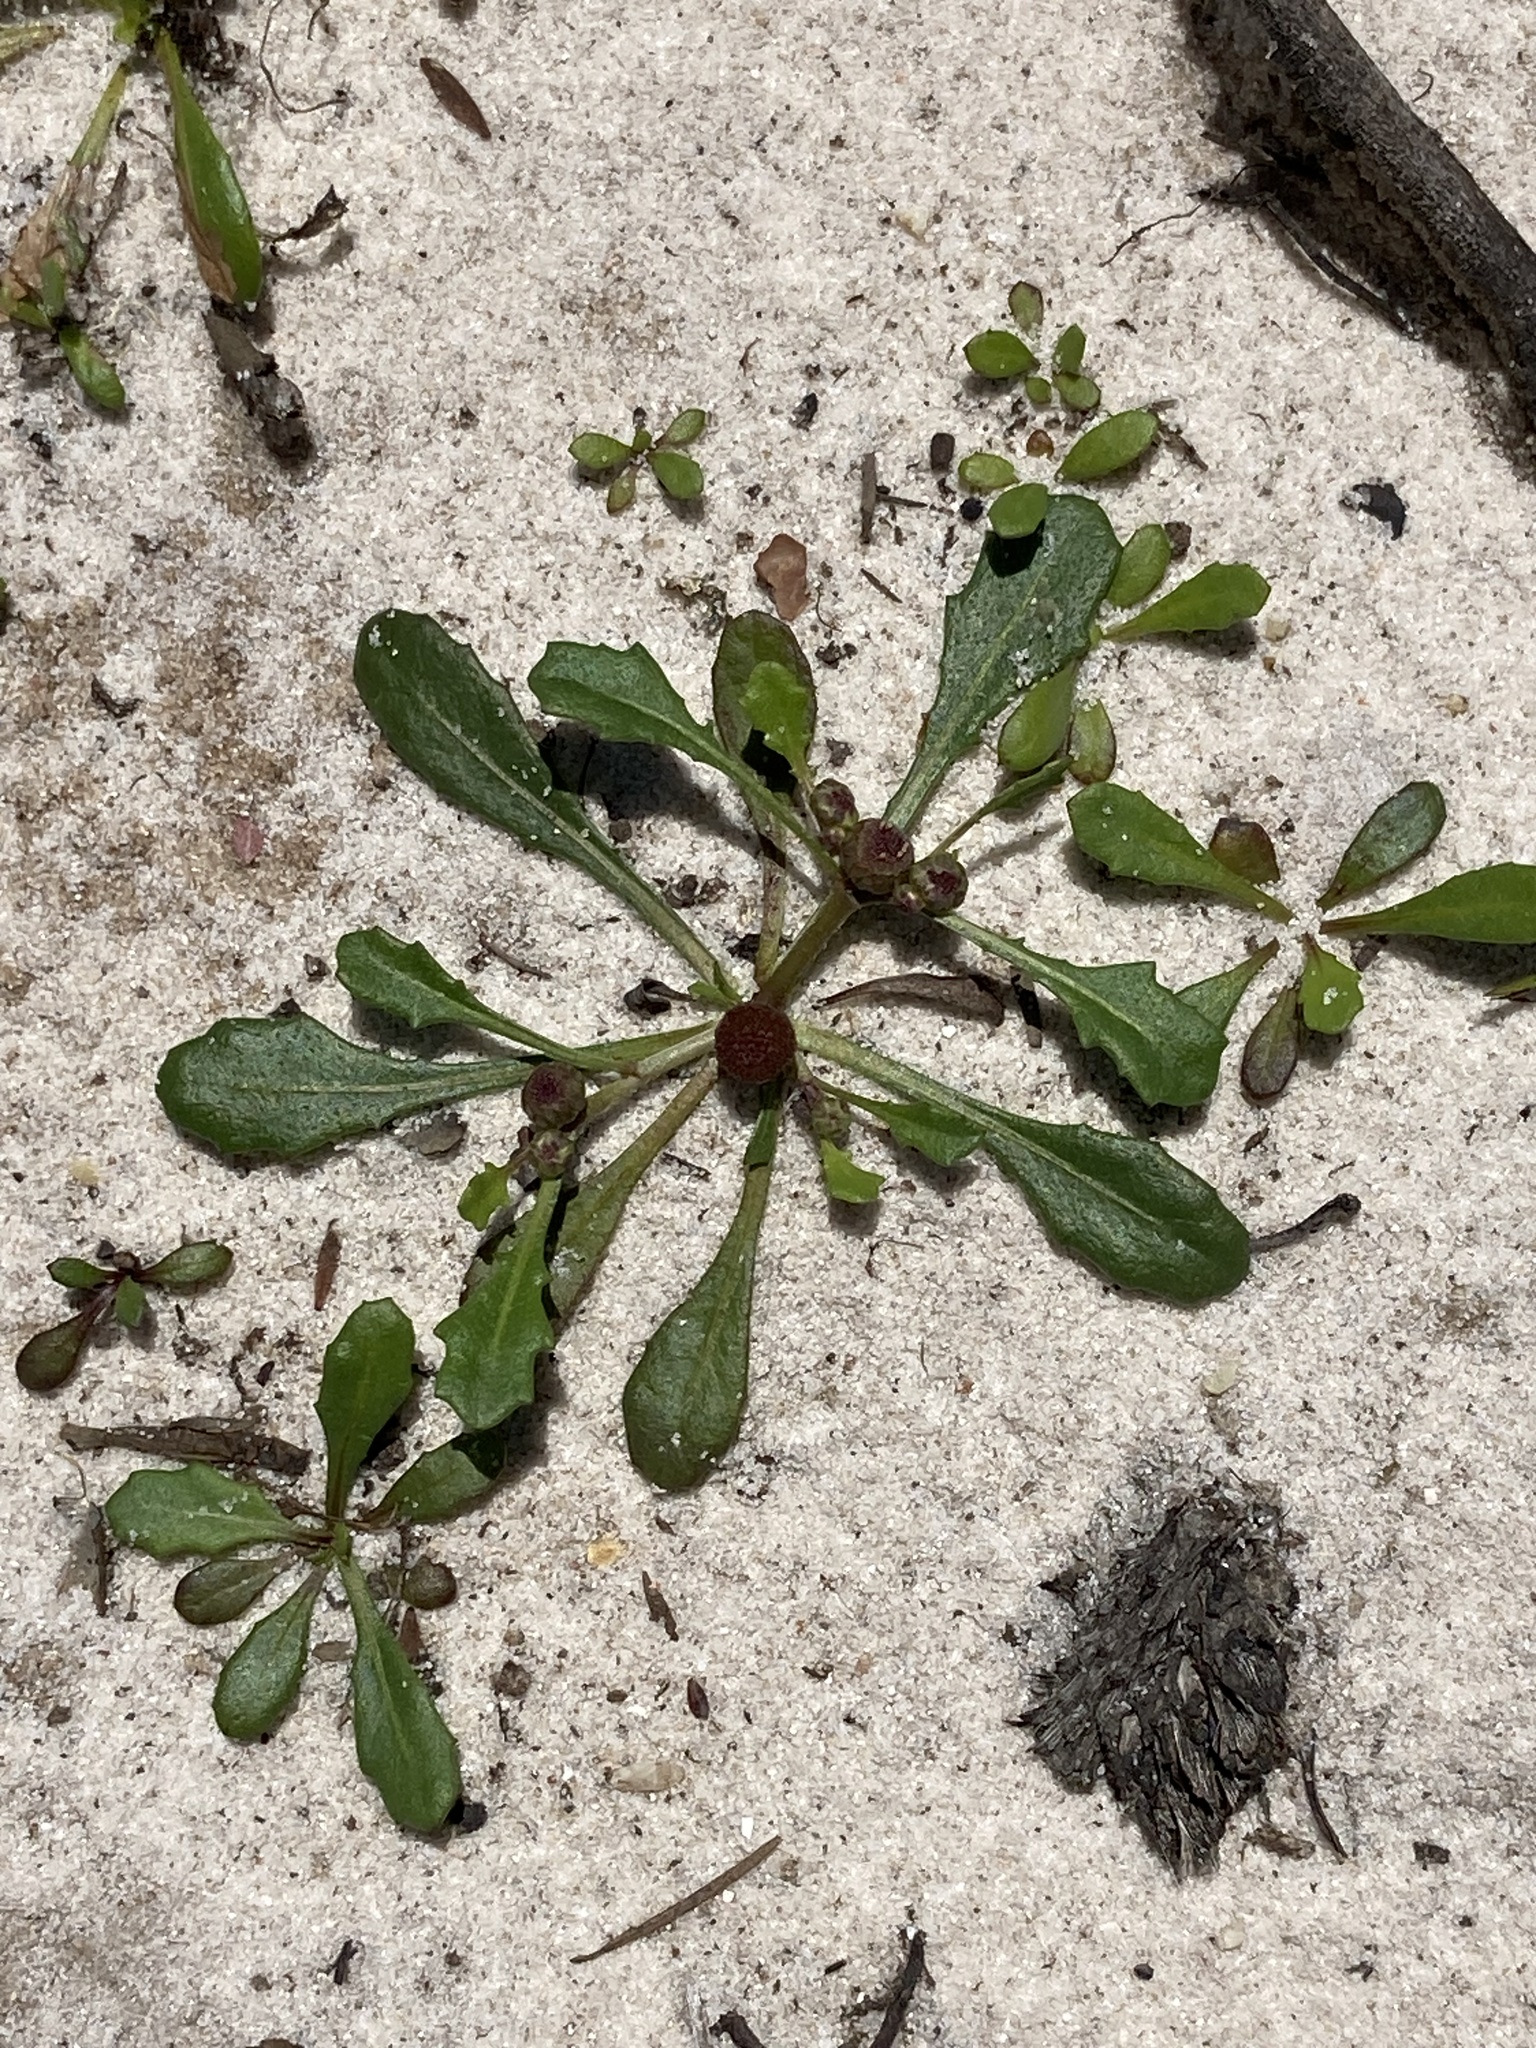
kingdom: Plantae
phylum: Tracheophyta
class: Magnoliopsida
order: Asterales
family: Asteraceae
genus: Sphaeromorphaea
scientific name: Sphaeromorphaea australis
